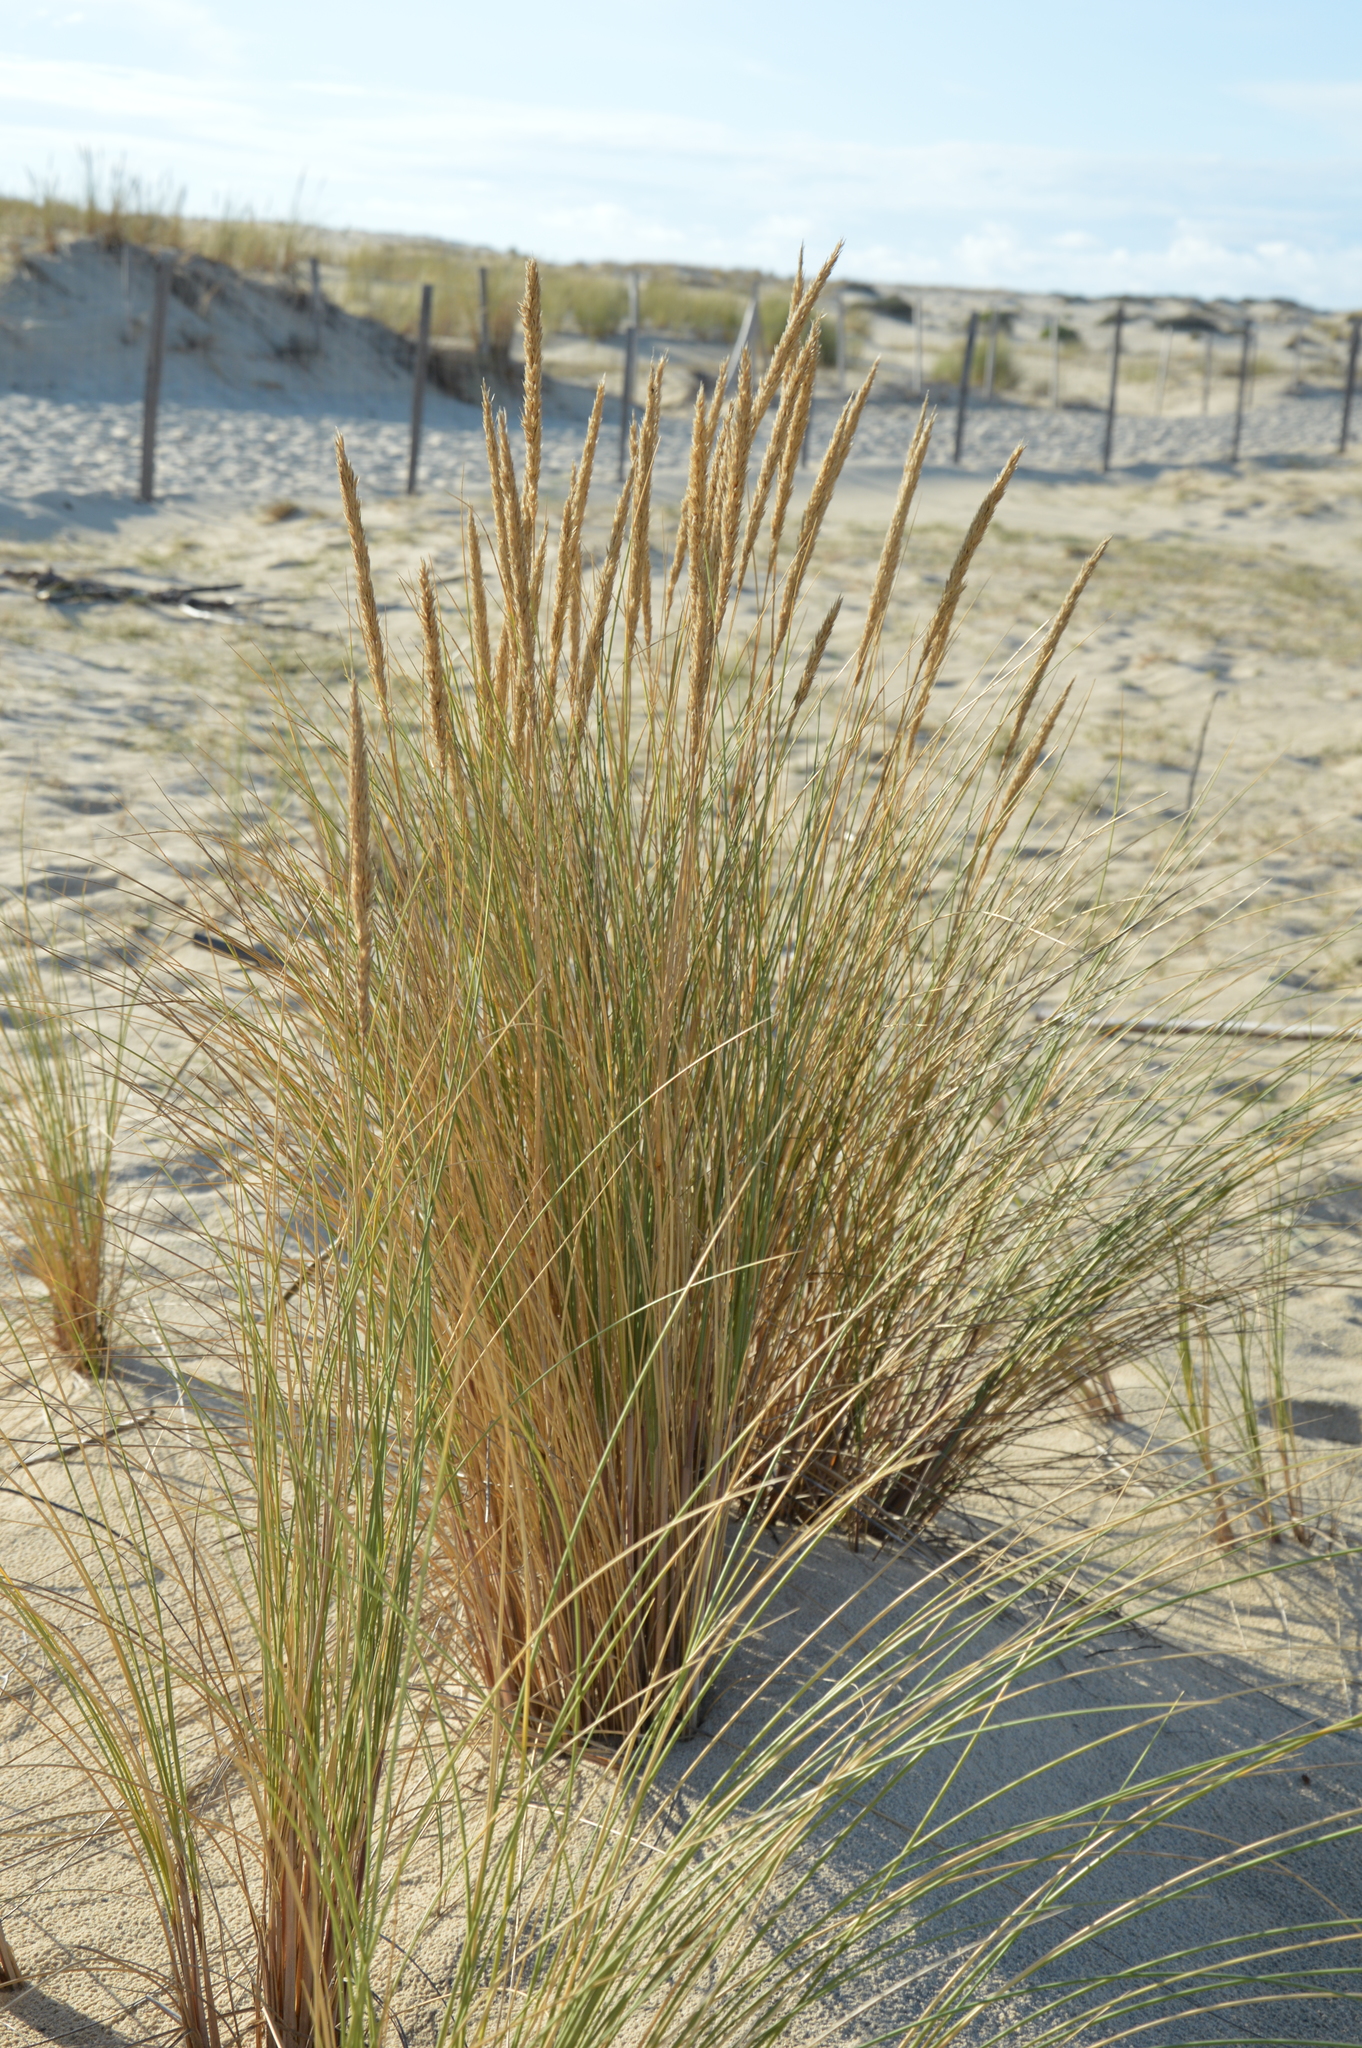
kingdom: Plantae
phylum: Tracheophyta
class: Liliopsida
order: Poales
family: Poaceae
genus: Calamagrostis
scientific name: Calamagrostis arenaria
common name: European beachgrass
